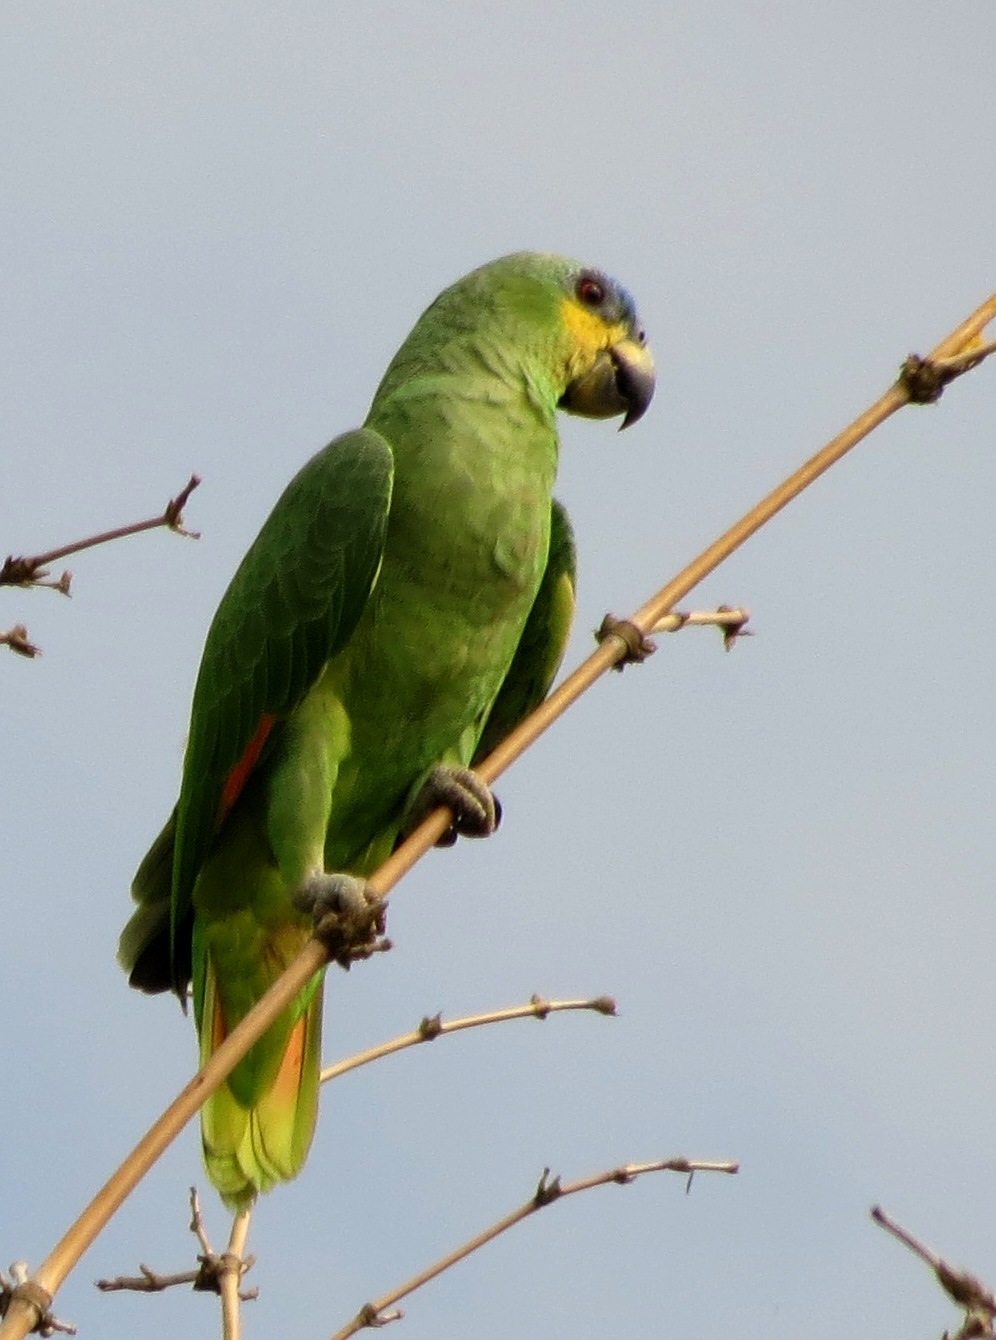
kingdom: Animalia
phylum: Chordata
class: Aves
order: Psittaciformes
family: Psittacidae
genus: Amazona
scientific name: Amazona amazonica
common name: Orange-winged amazon
